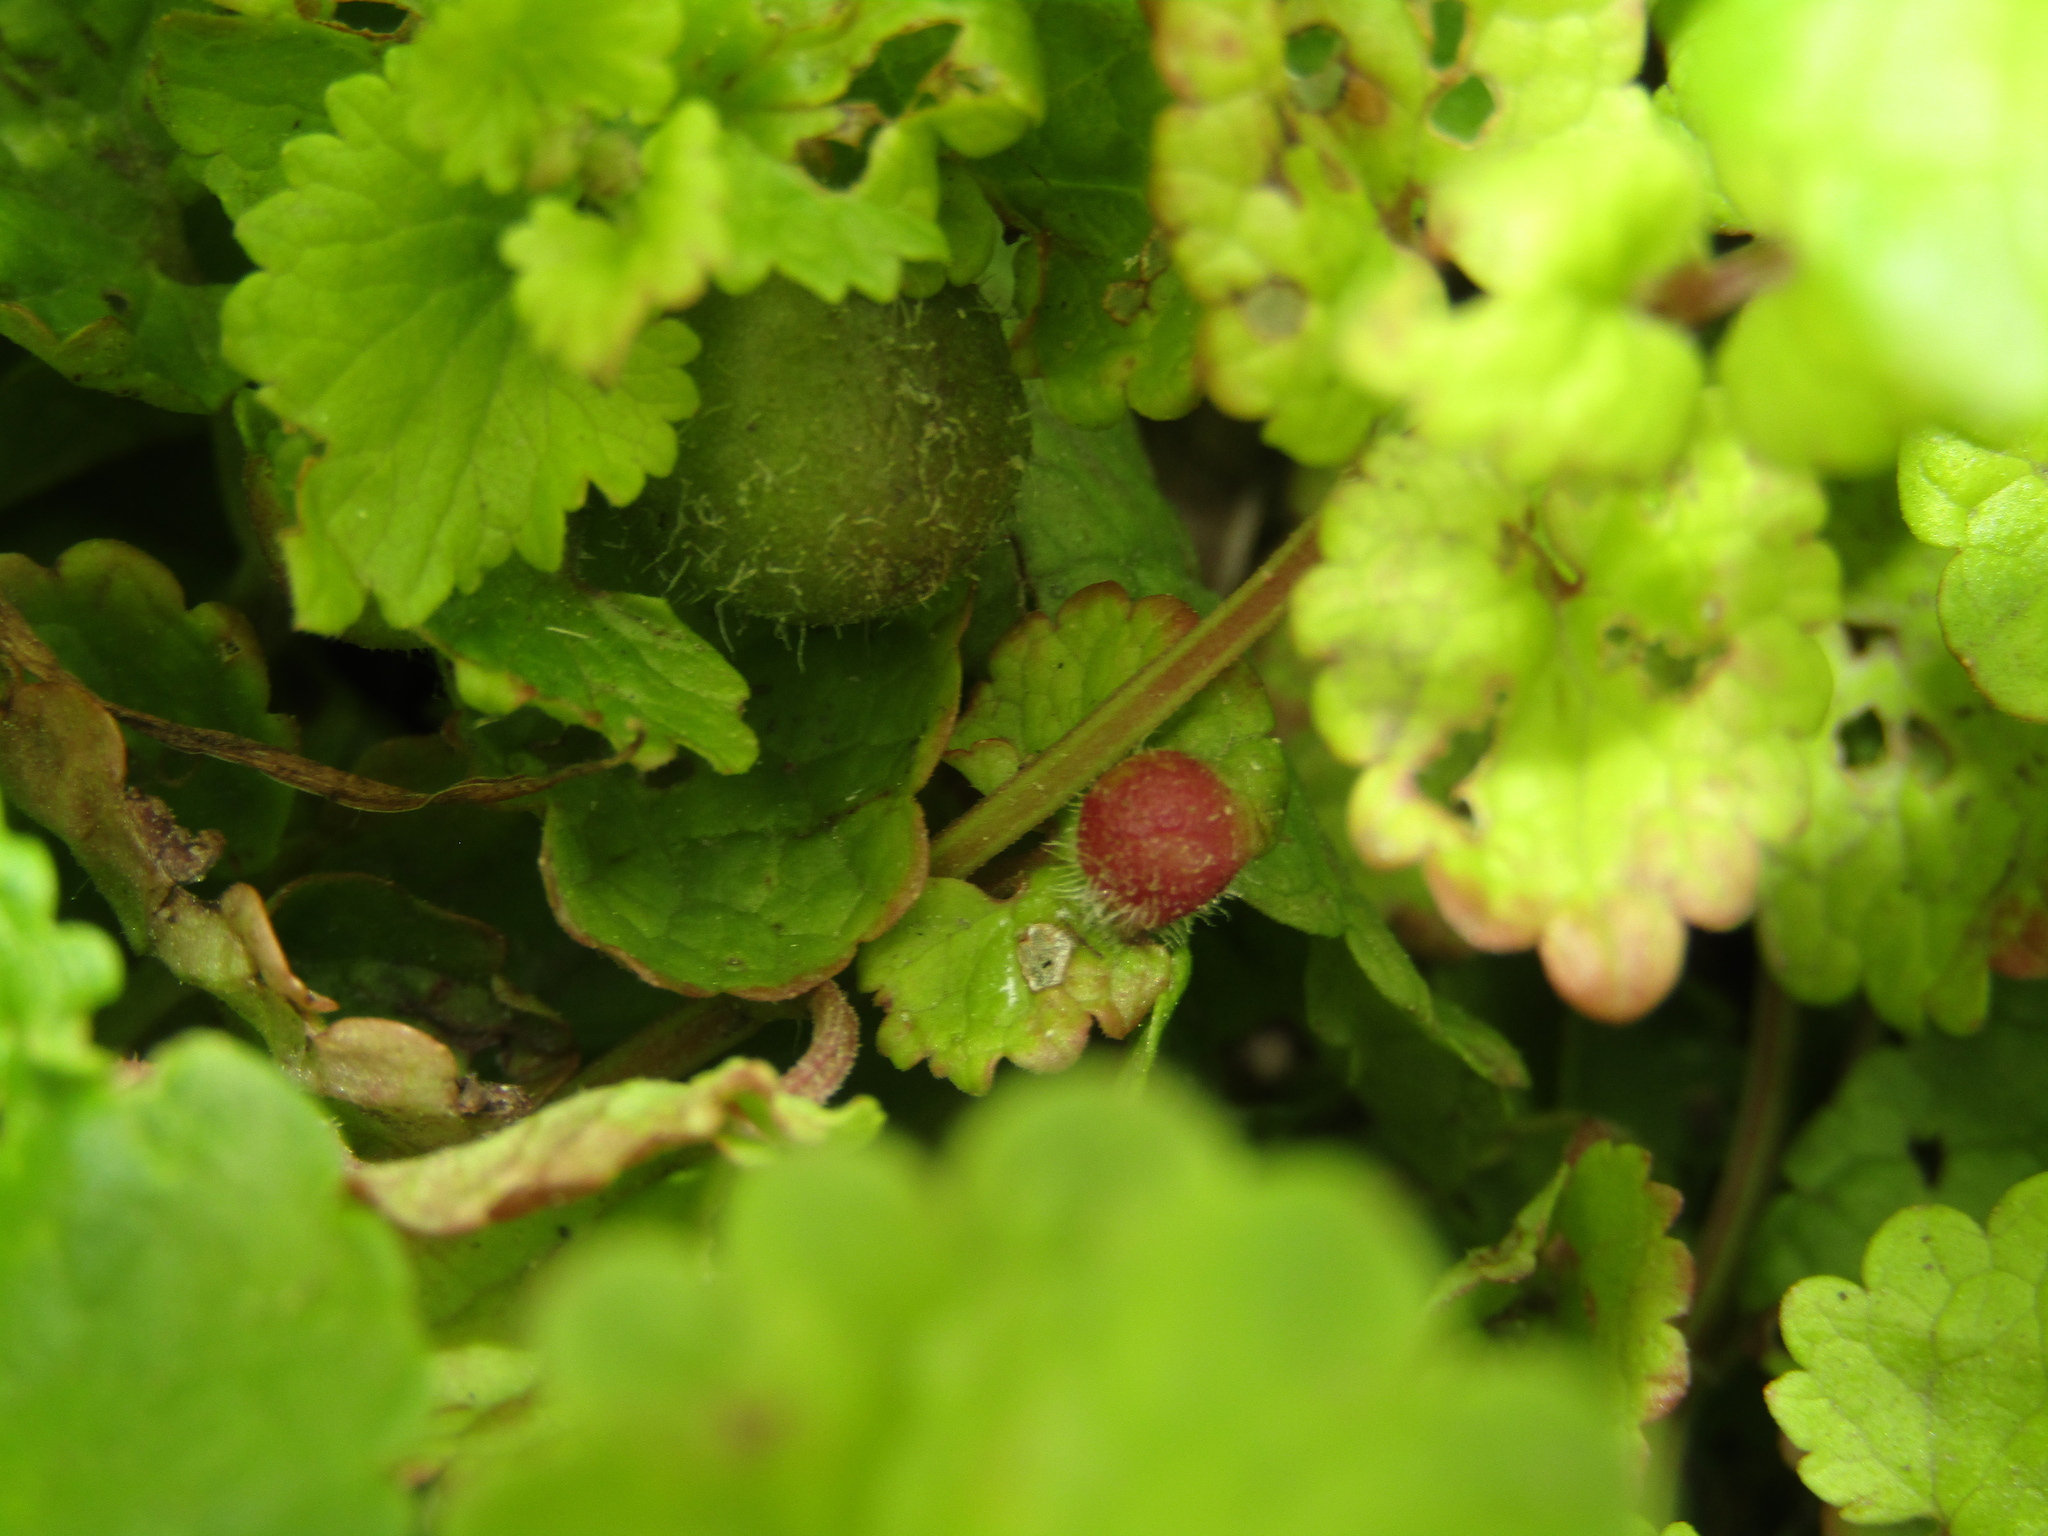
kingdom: Animalia
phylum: Arthropoda
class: Insecta
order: Hymenoptera
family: Cynipidae
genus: Liposthenes
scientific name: Liposthenes glechomae
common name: Gall wasp
